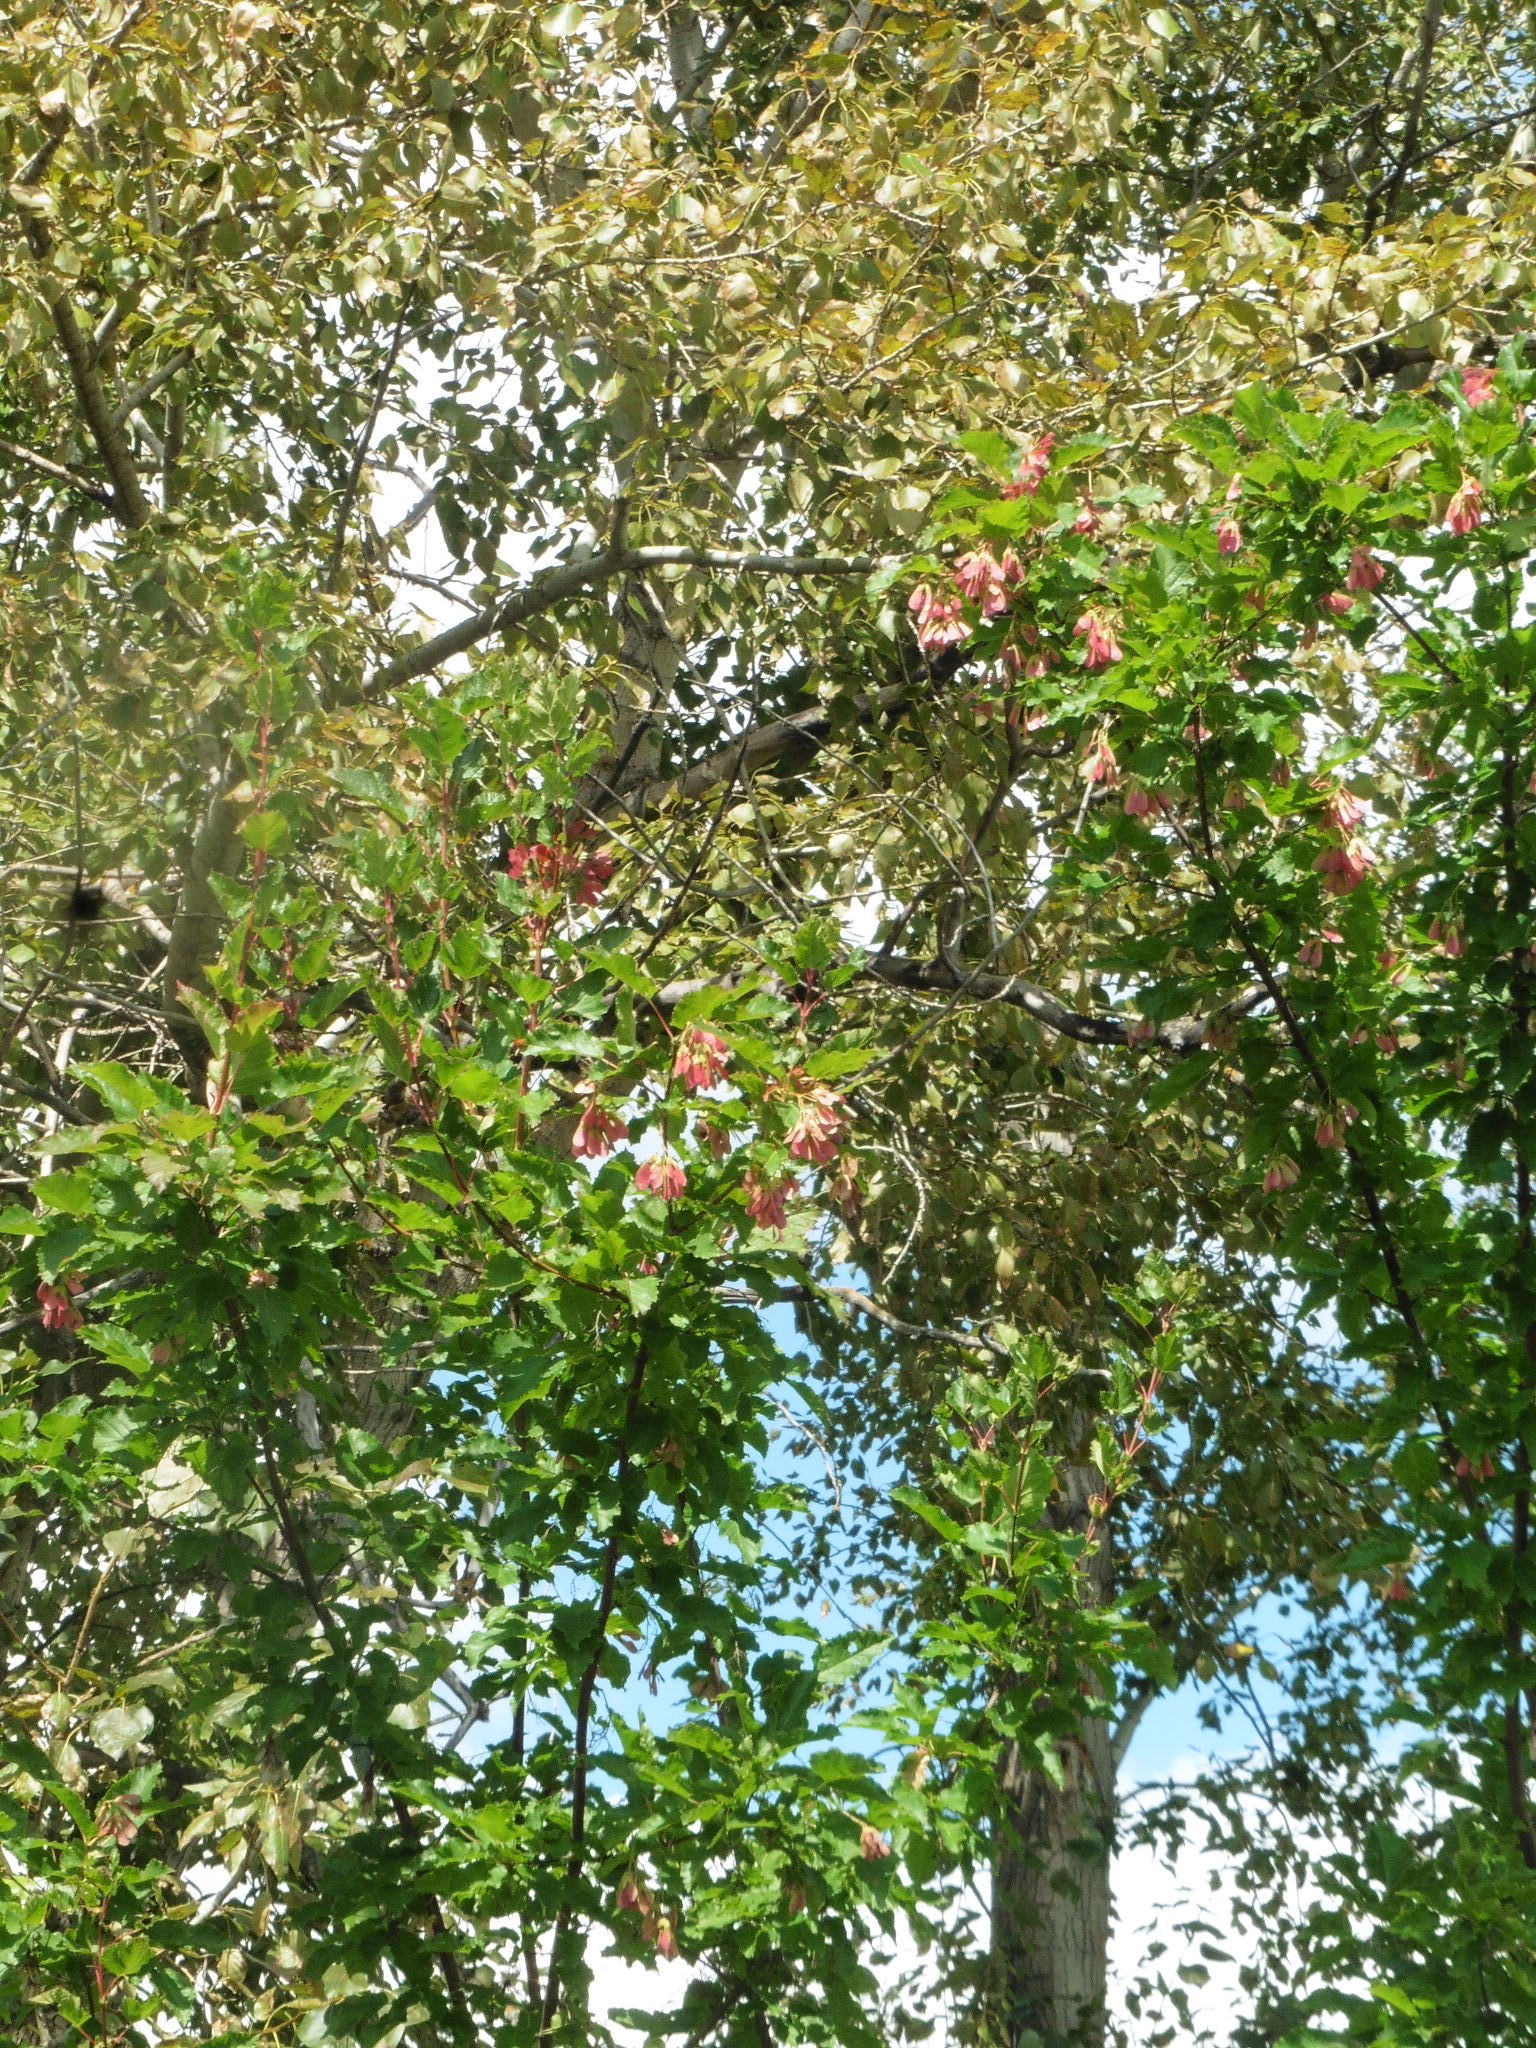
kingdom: Plantae
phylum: Tracheophyta
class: Magnoliopsida
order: Sapindales
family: Sapindaceae
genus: Acer
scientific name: Acer tataricum
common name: Tartar maple
